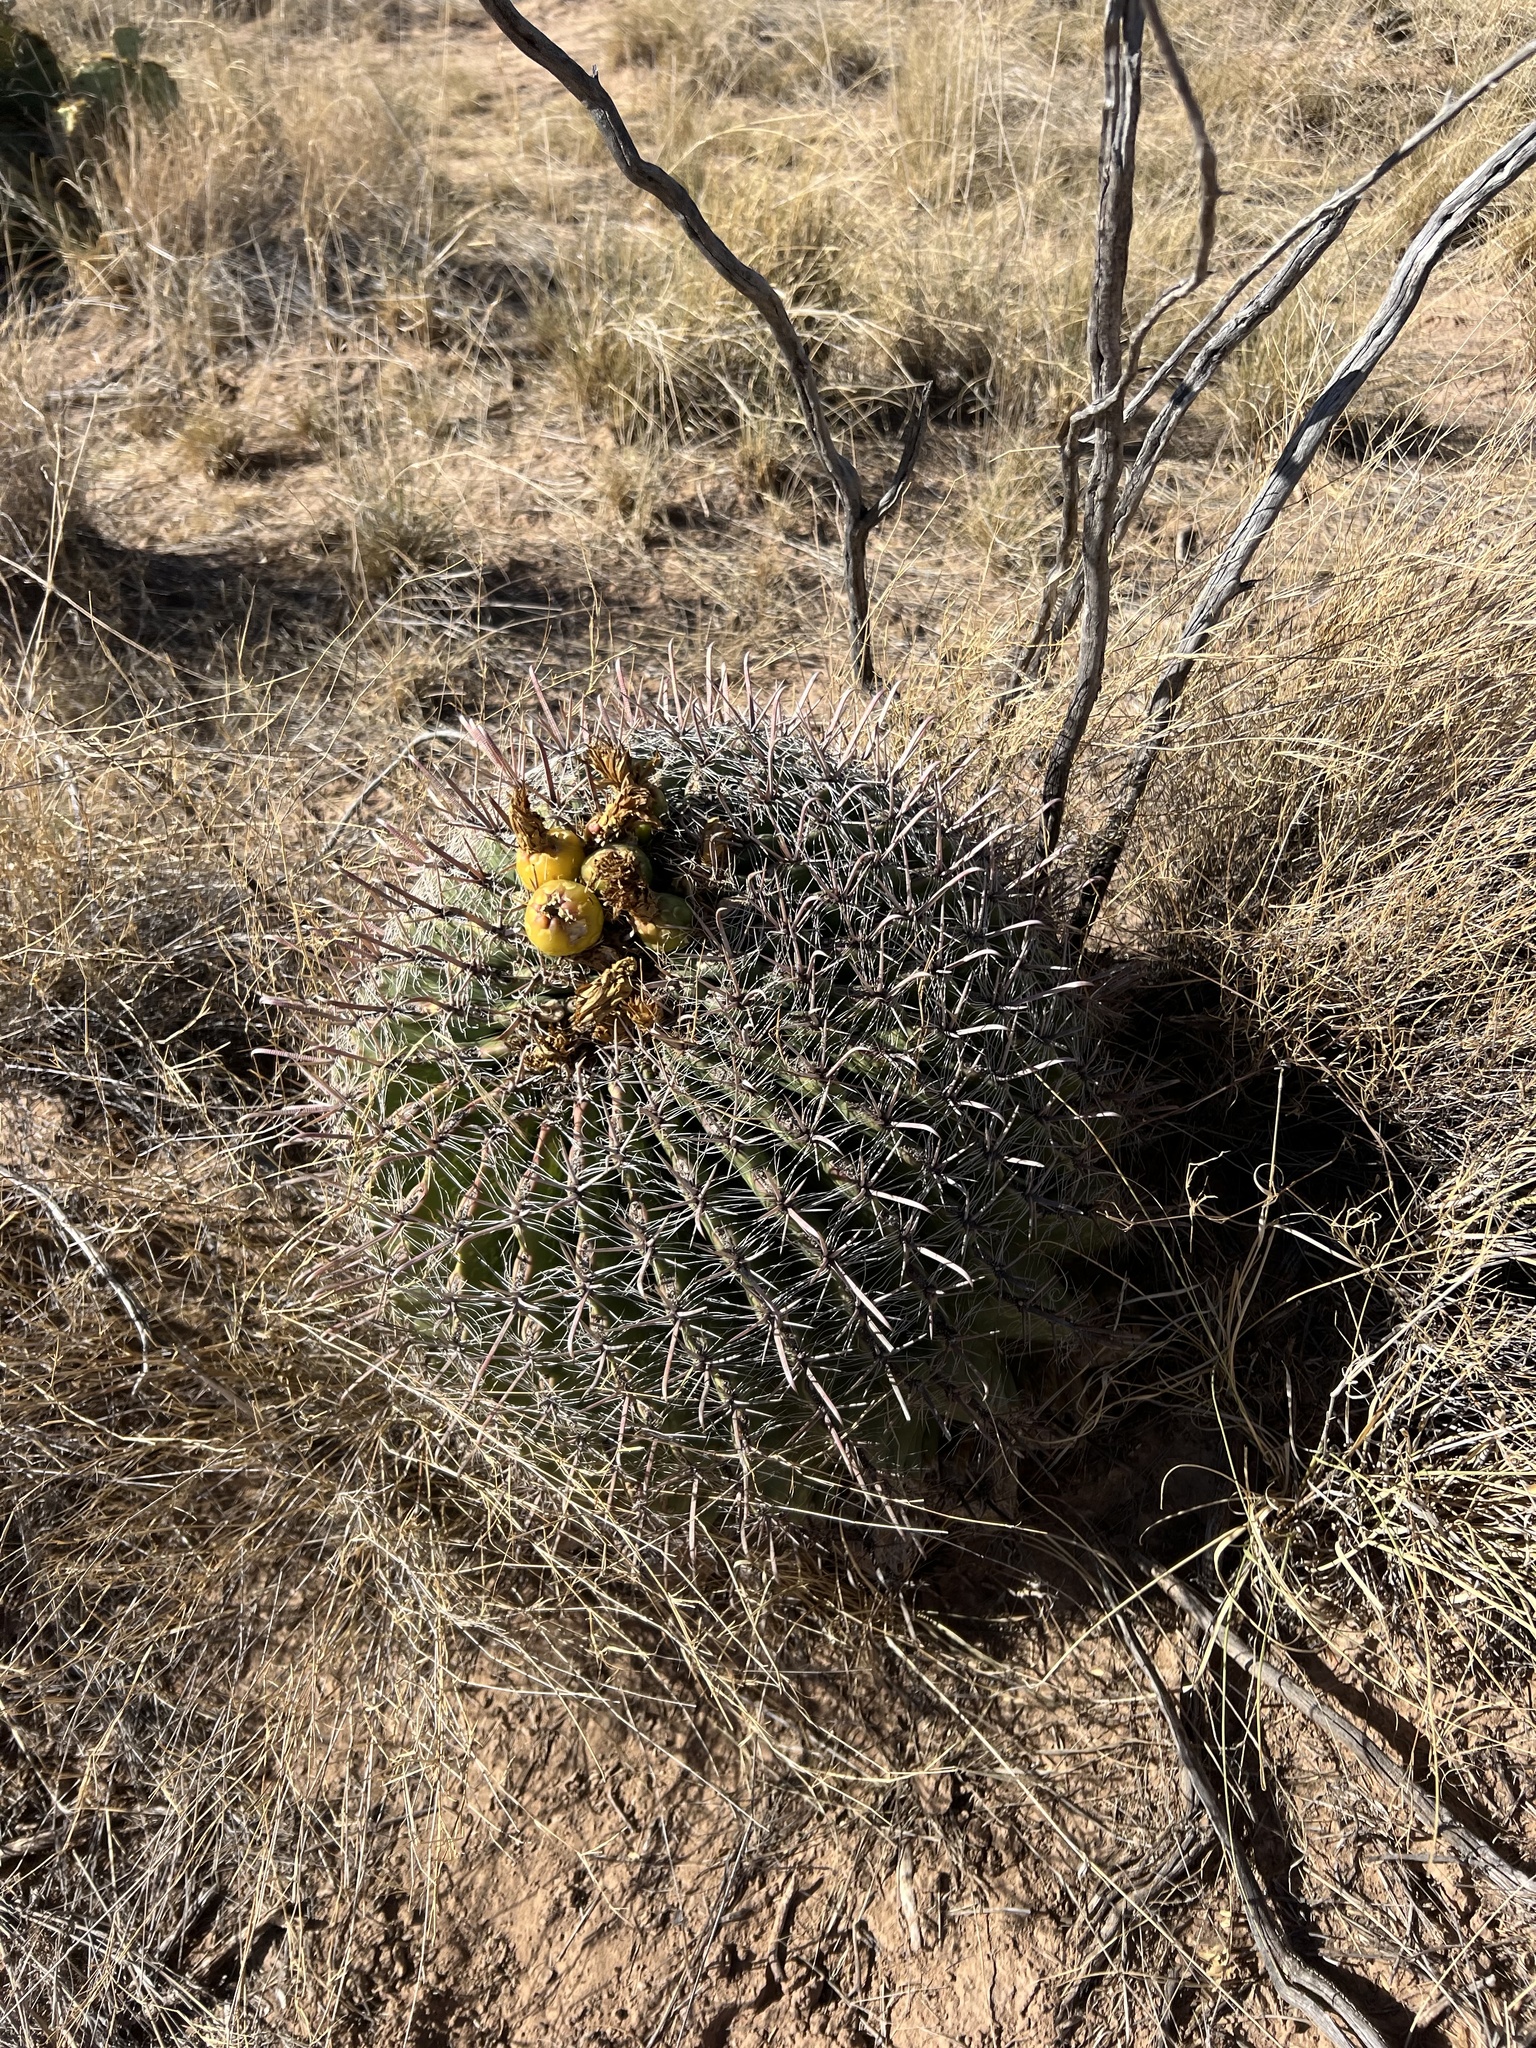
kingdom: Plantae
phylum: Tracheophyta
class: Magnoliopsida
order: Caryophyllales
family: Cactaceae
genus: Ferocactus
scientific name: Ferocactus wislizeni
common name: Candy barrel cactus
